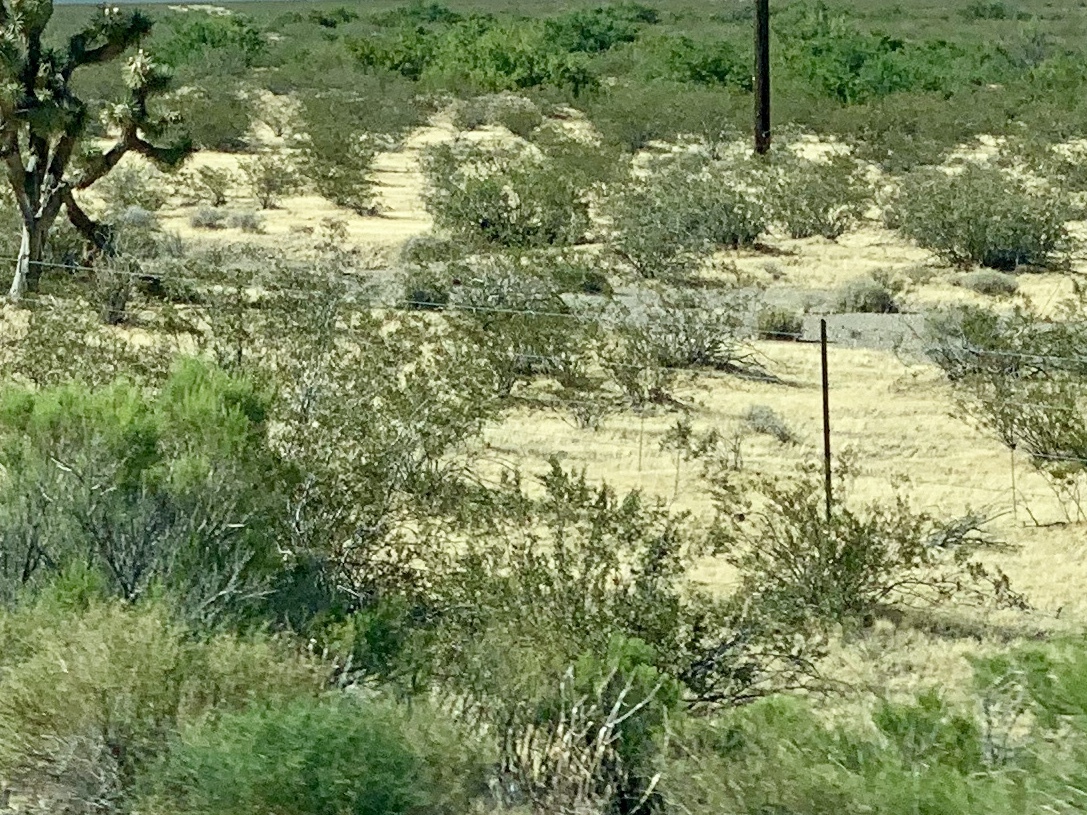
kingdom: Plantae
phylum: Tracheophyta
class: Magnoliopsida
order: Zygophyllales
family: Zygophyllaceae
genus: Larrea
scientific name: Larrea tridentata
